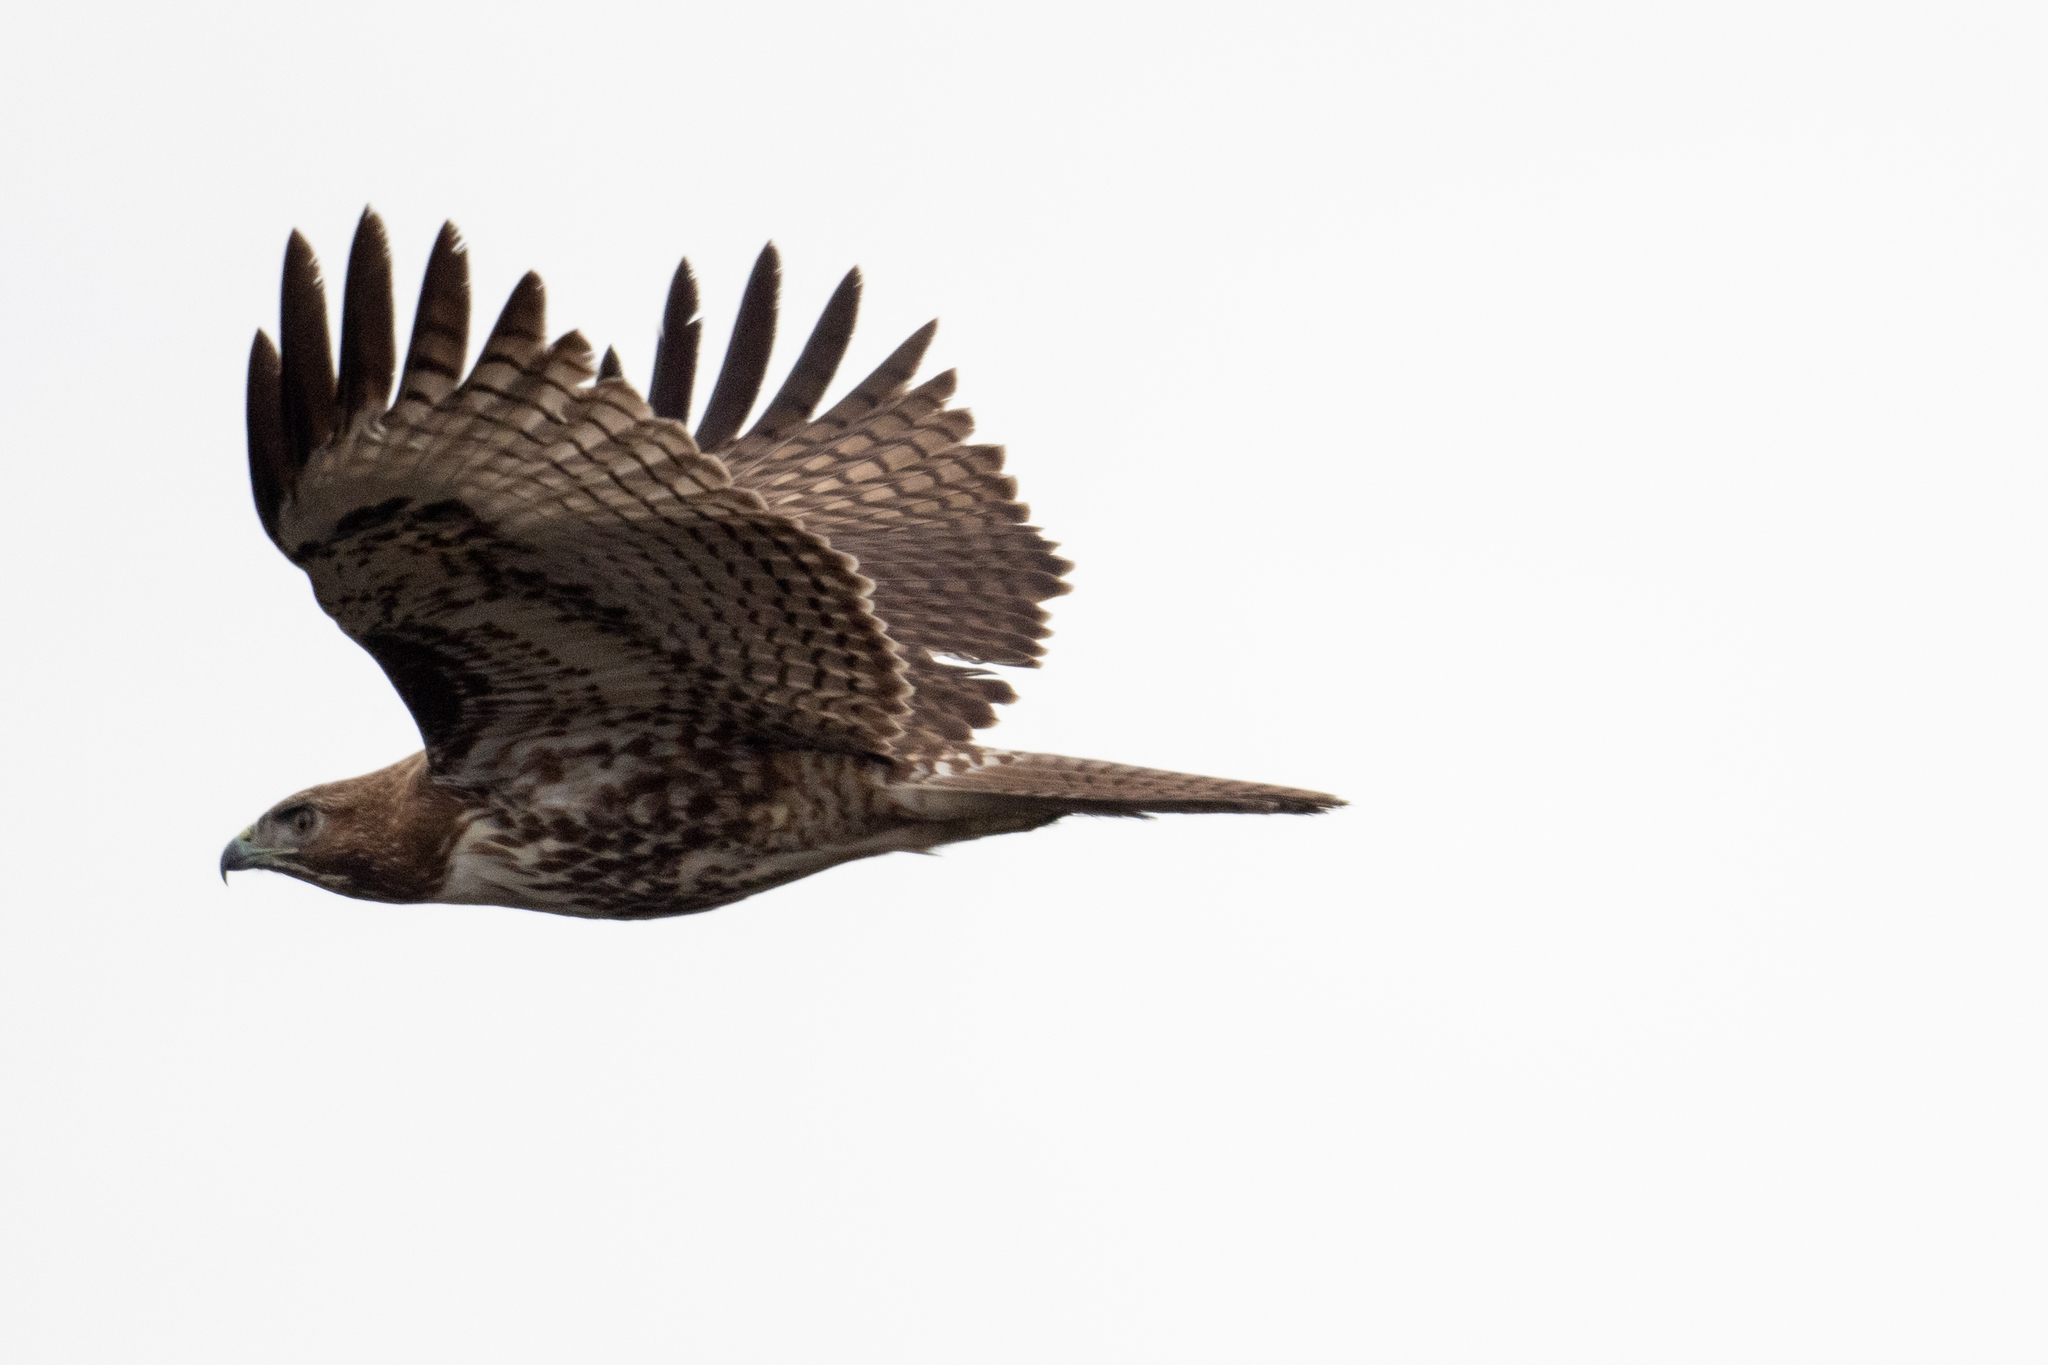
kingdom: Animalia
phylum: Chordata
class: Aves
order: Accipitriformes
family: Accipitridae
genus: Buteo
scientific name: Buteo jamaicensis
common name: Red-tailed hawk
